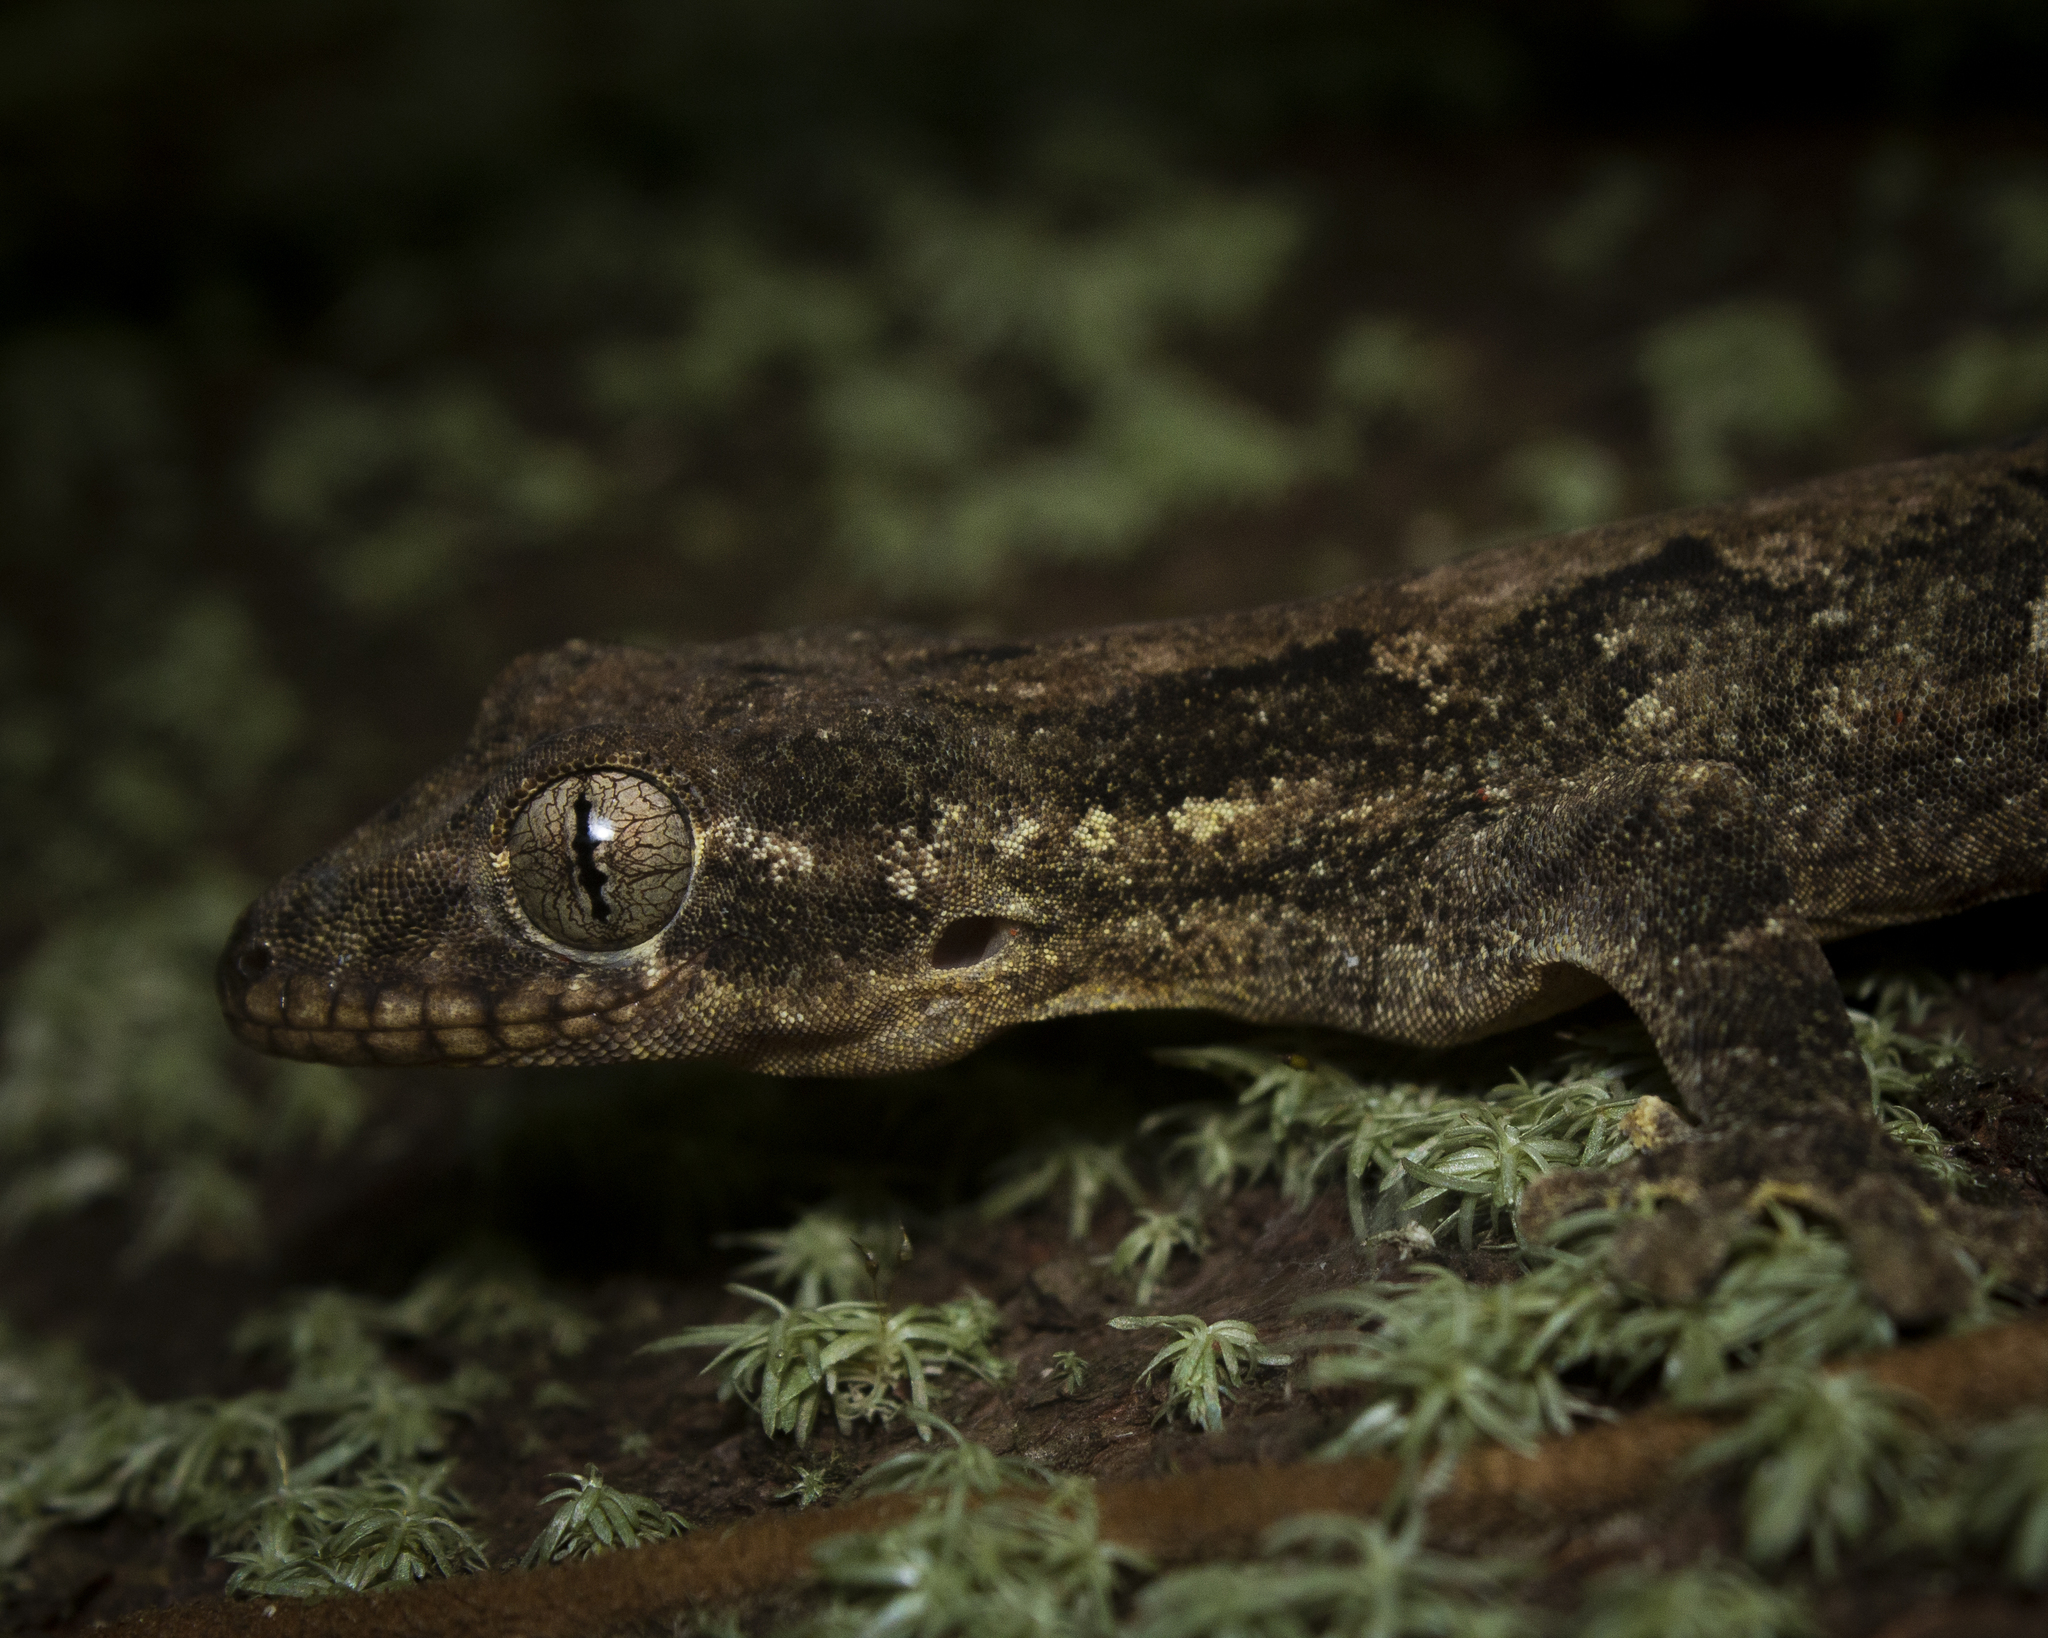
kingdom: Animalia
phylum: Chordata
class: Squamata
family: Phyllodactylidae
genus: Thecadactylus
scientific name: Thecadactylus rapicauda
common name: Turnip-tailed gecko
